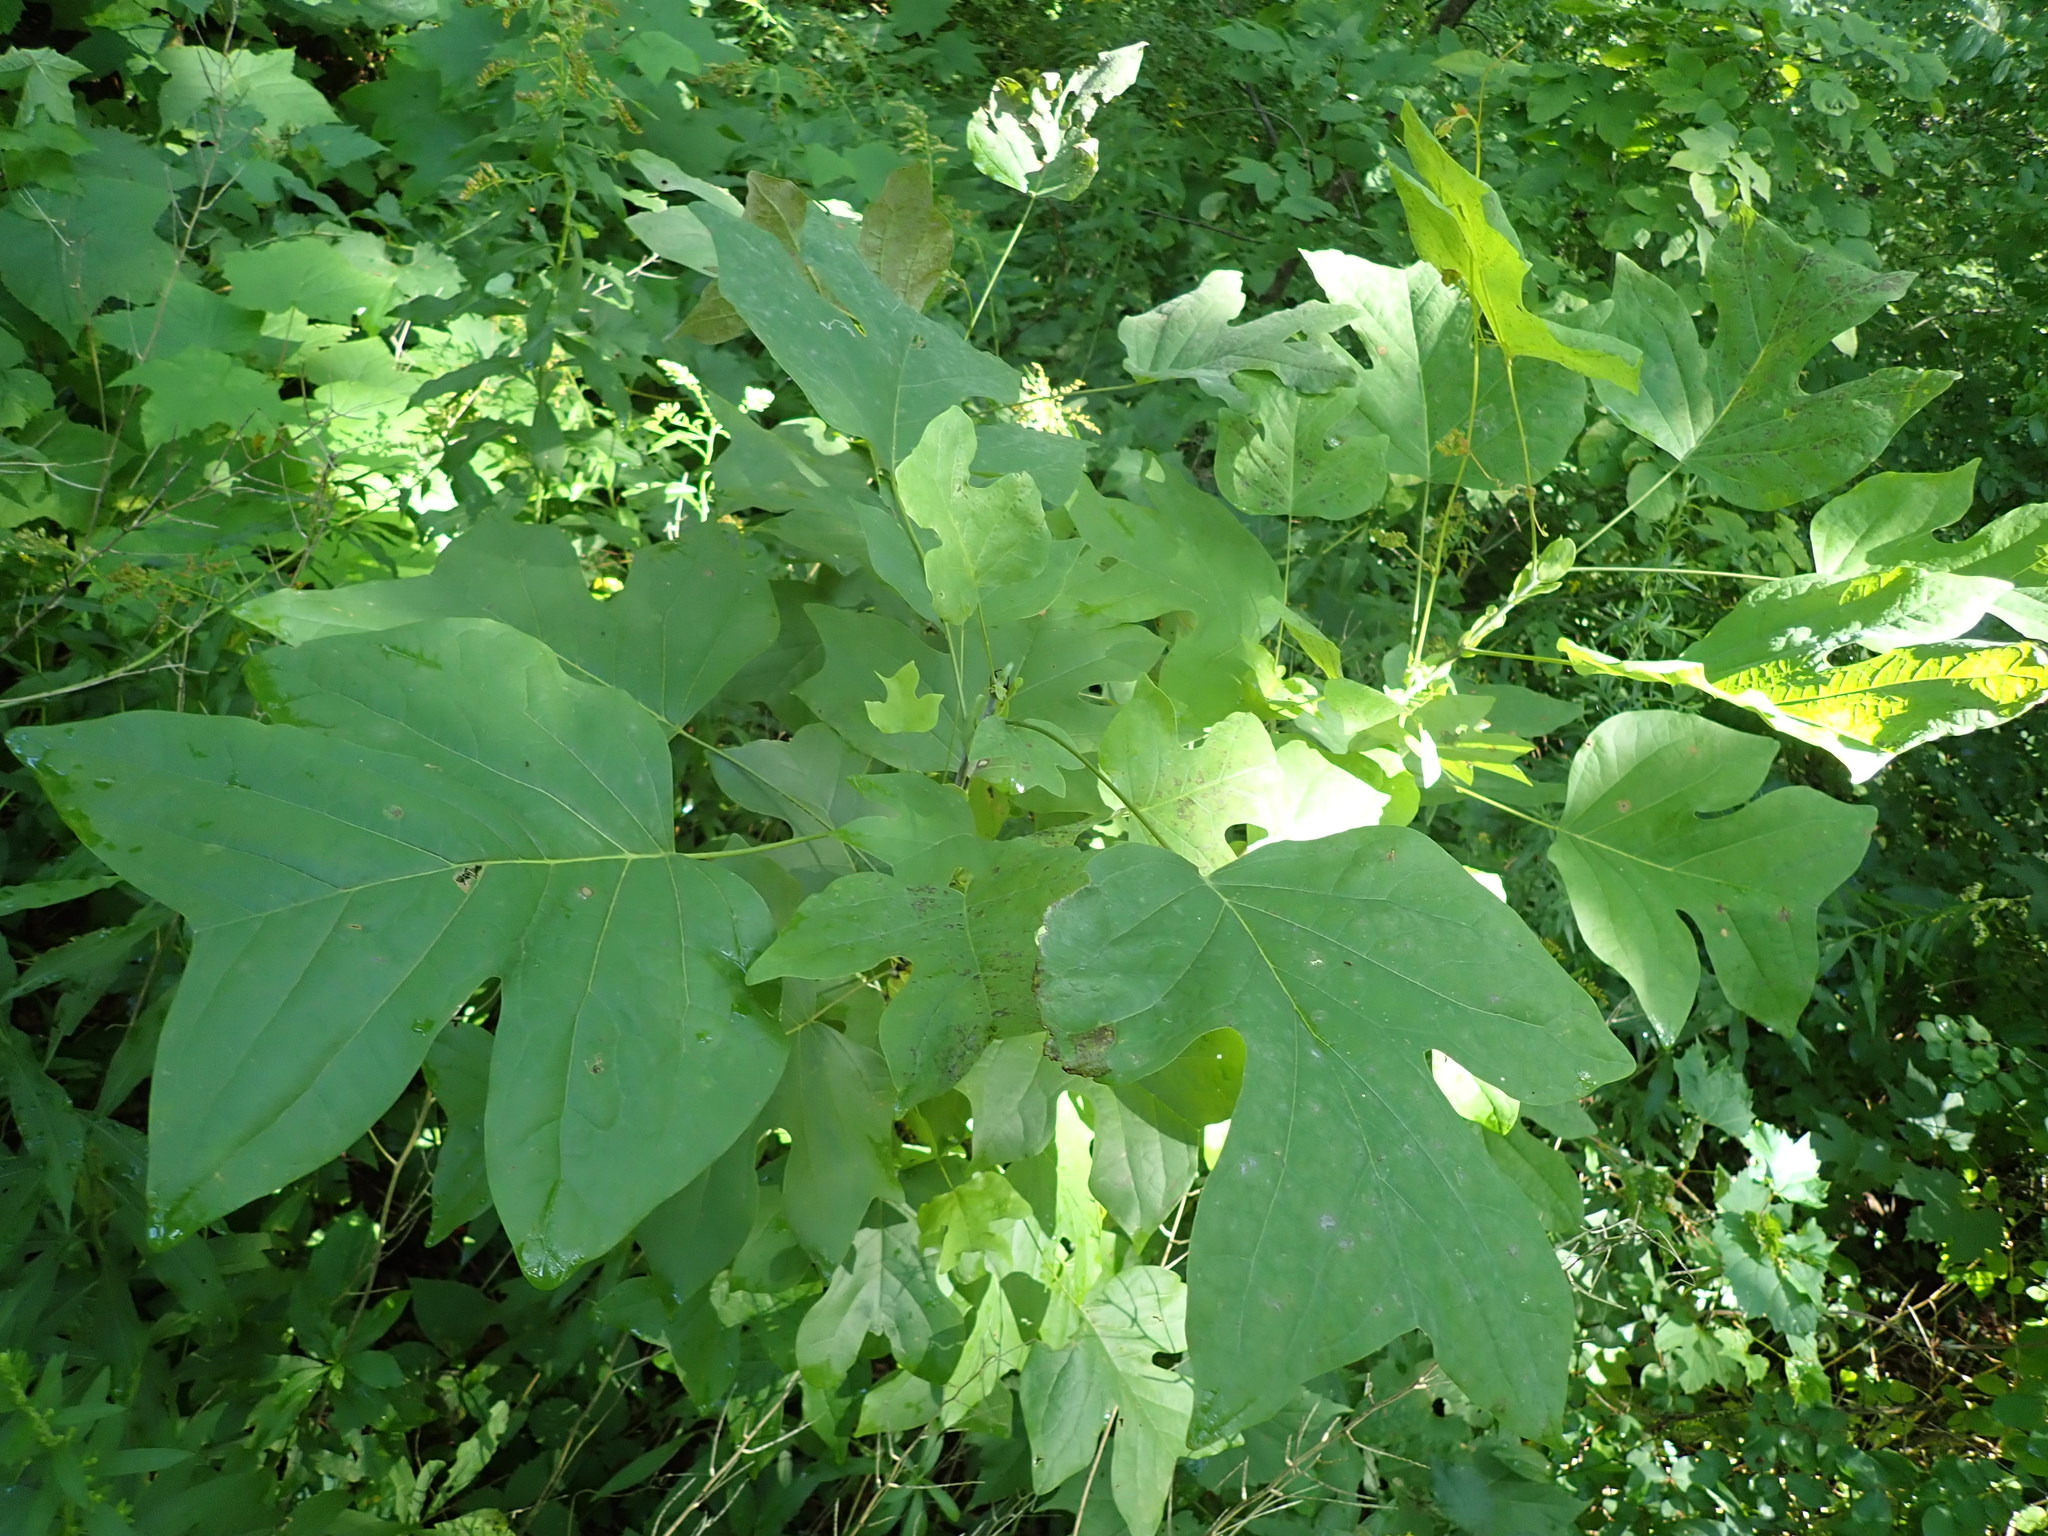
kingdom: Plantae
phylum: Tracheophyta
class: Magnoliopsida
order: Magnoliales
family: Magnoliaceae
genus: Liriodendron
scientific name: Liriodendron tulipifera
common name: Tulip tree
